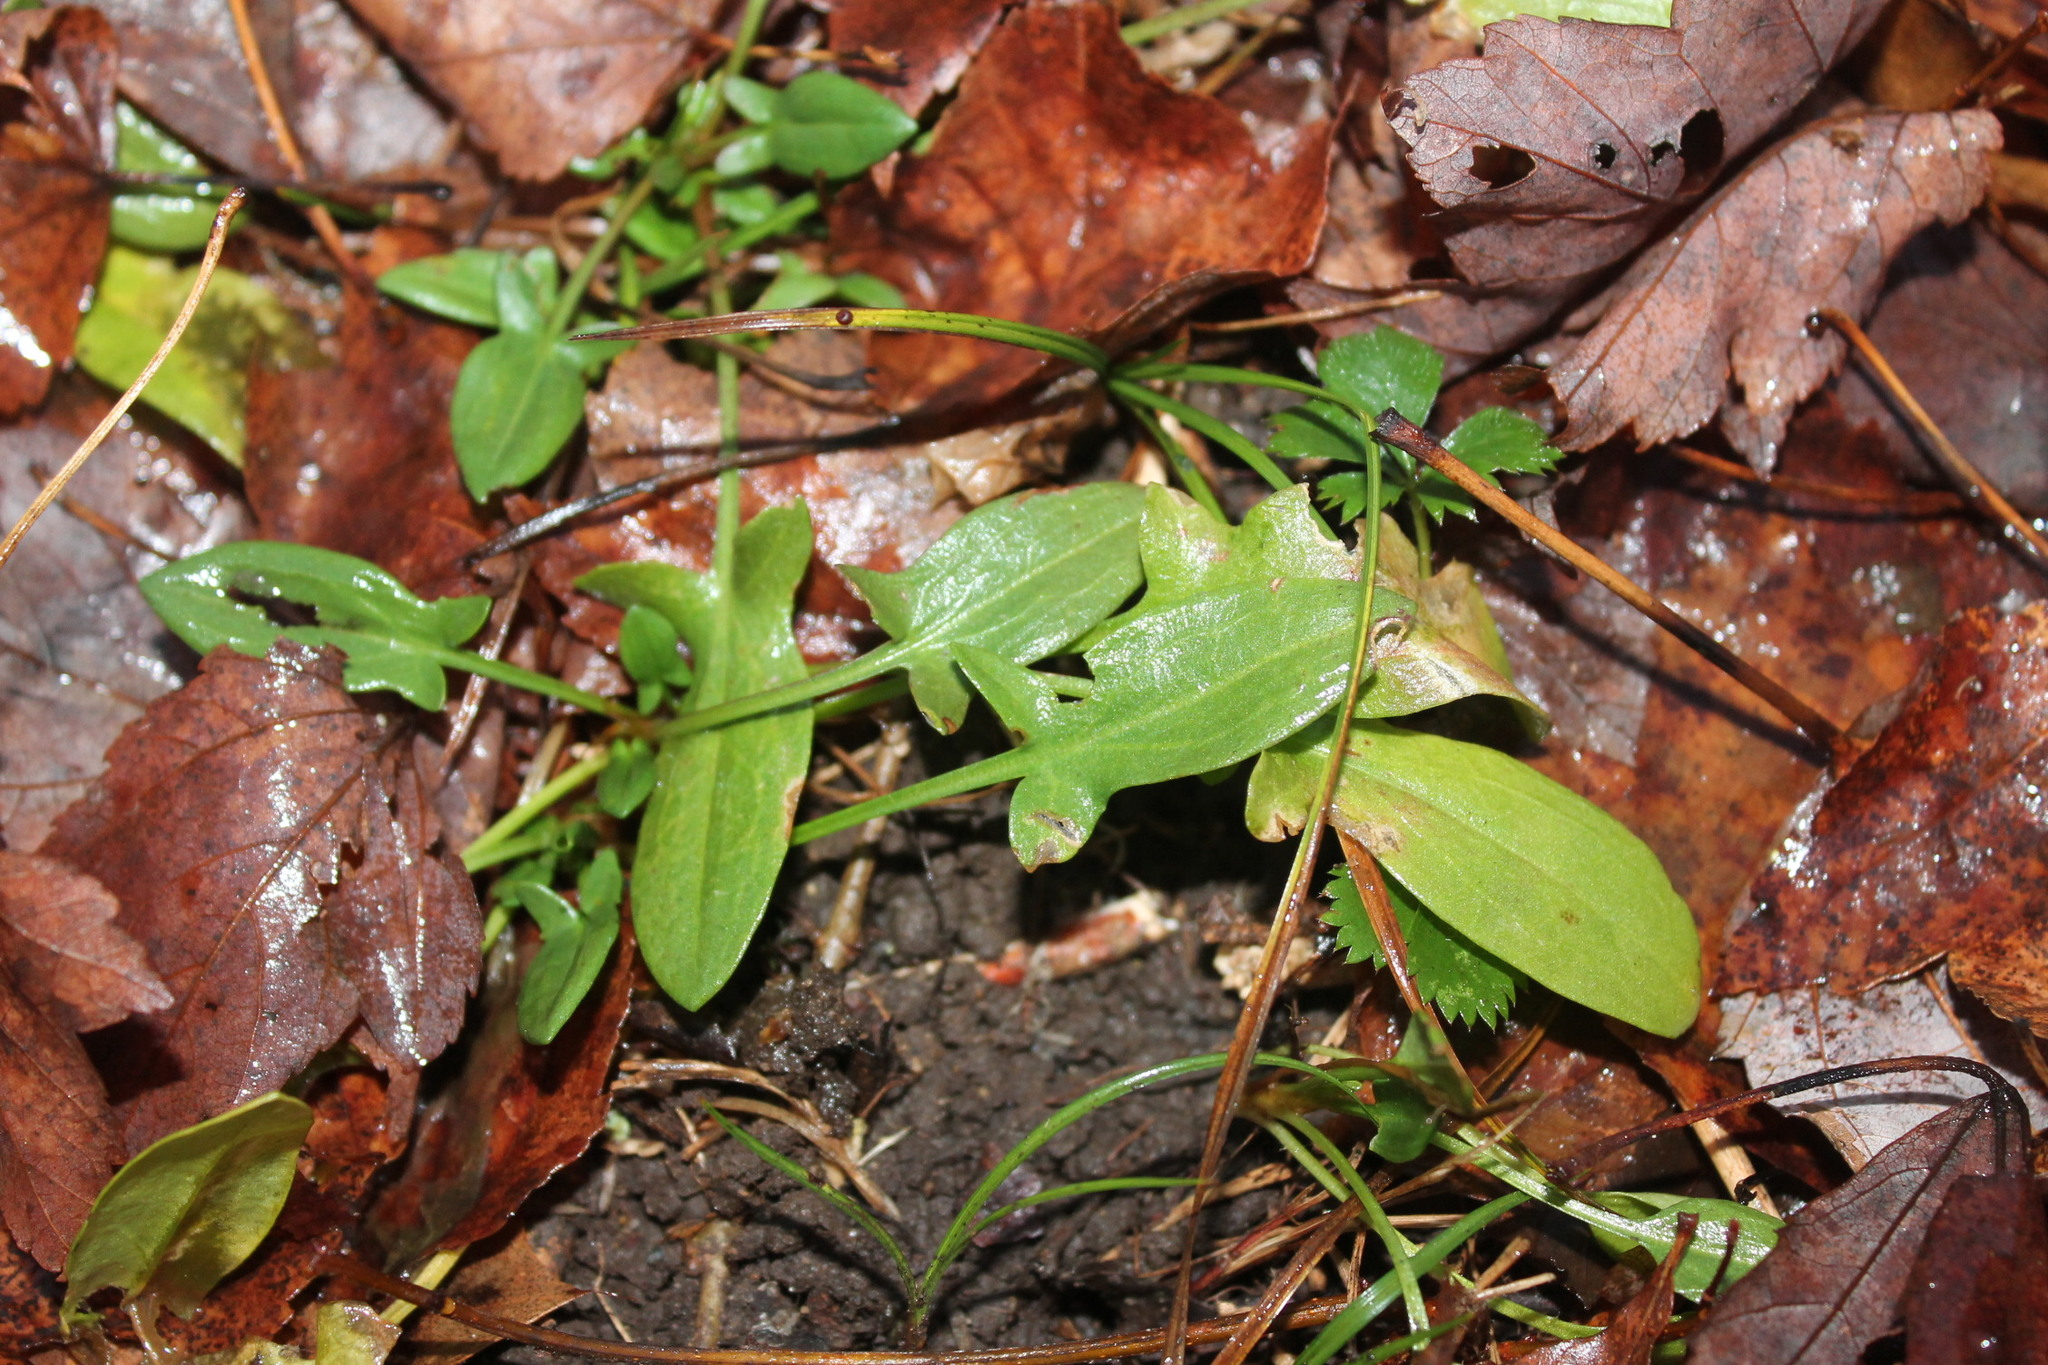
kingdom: Plantae
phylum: Tracheophyta
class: Magnoliopsida
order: Caryophyllales
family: Polygonaceae
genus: Rumex
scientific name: Rumex acetosella
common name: Common sheep sorrel
